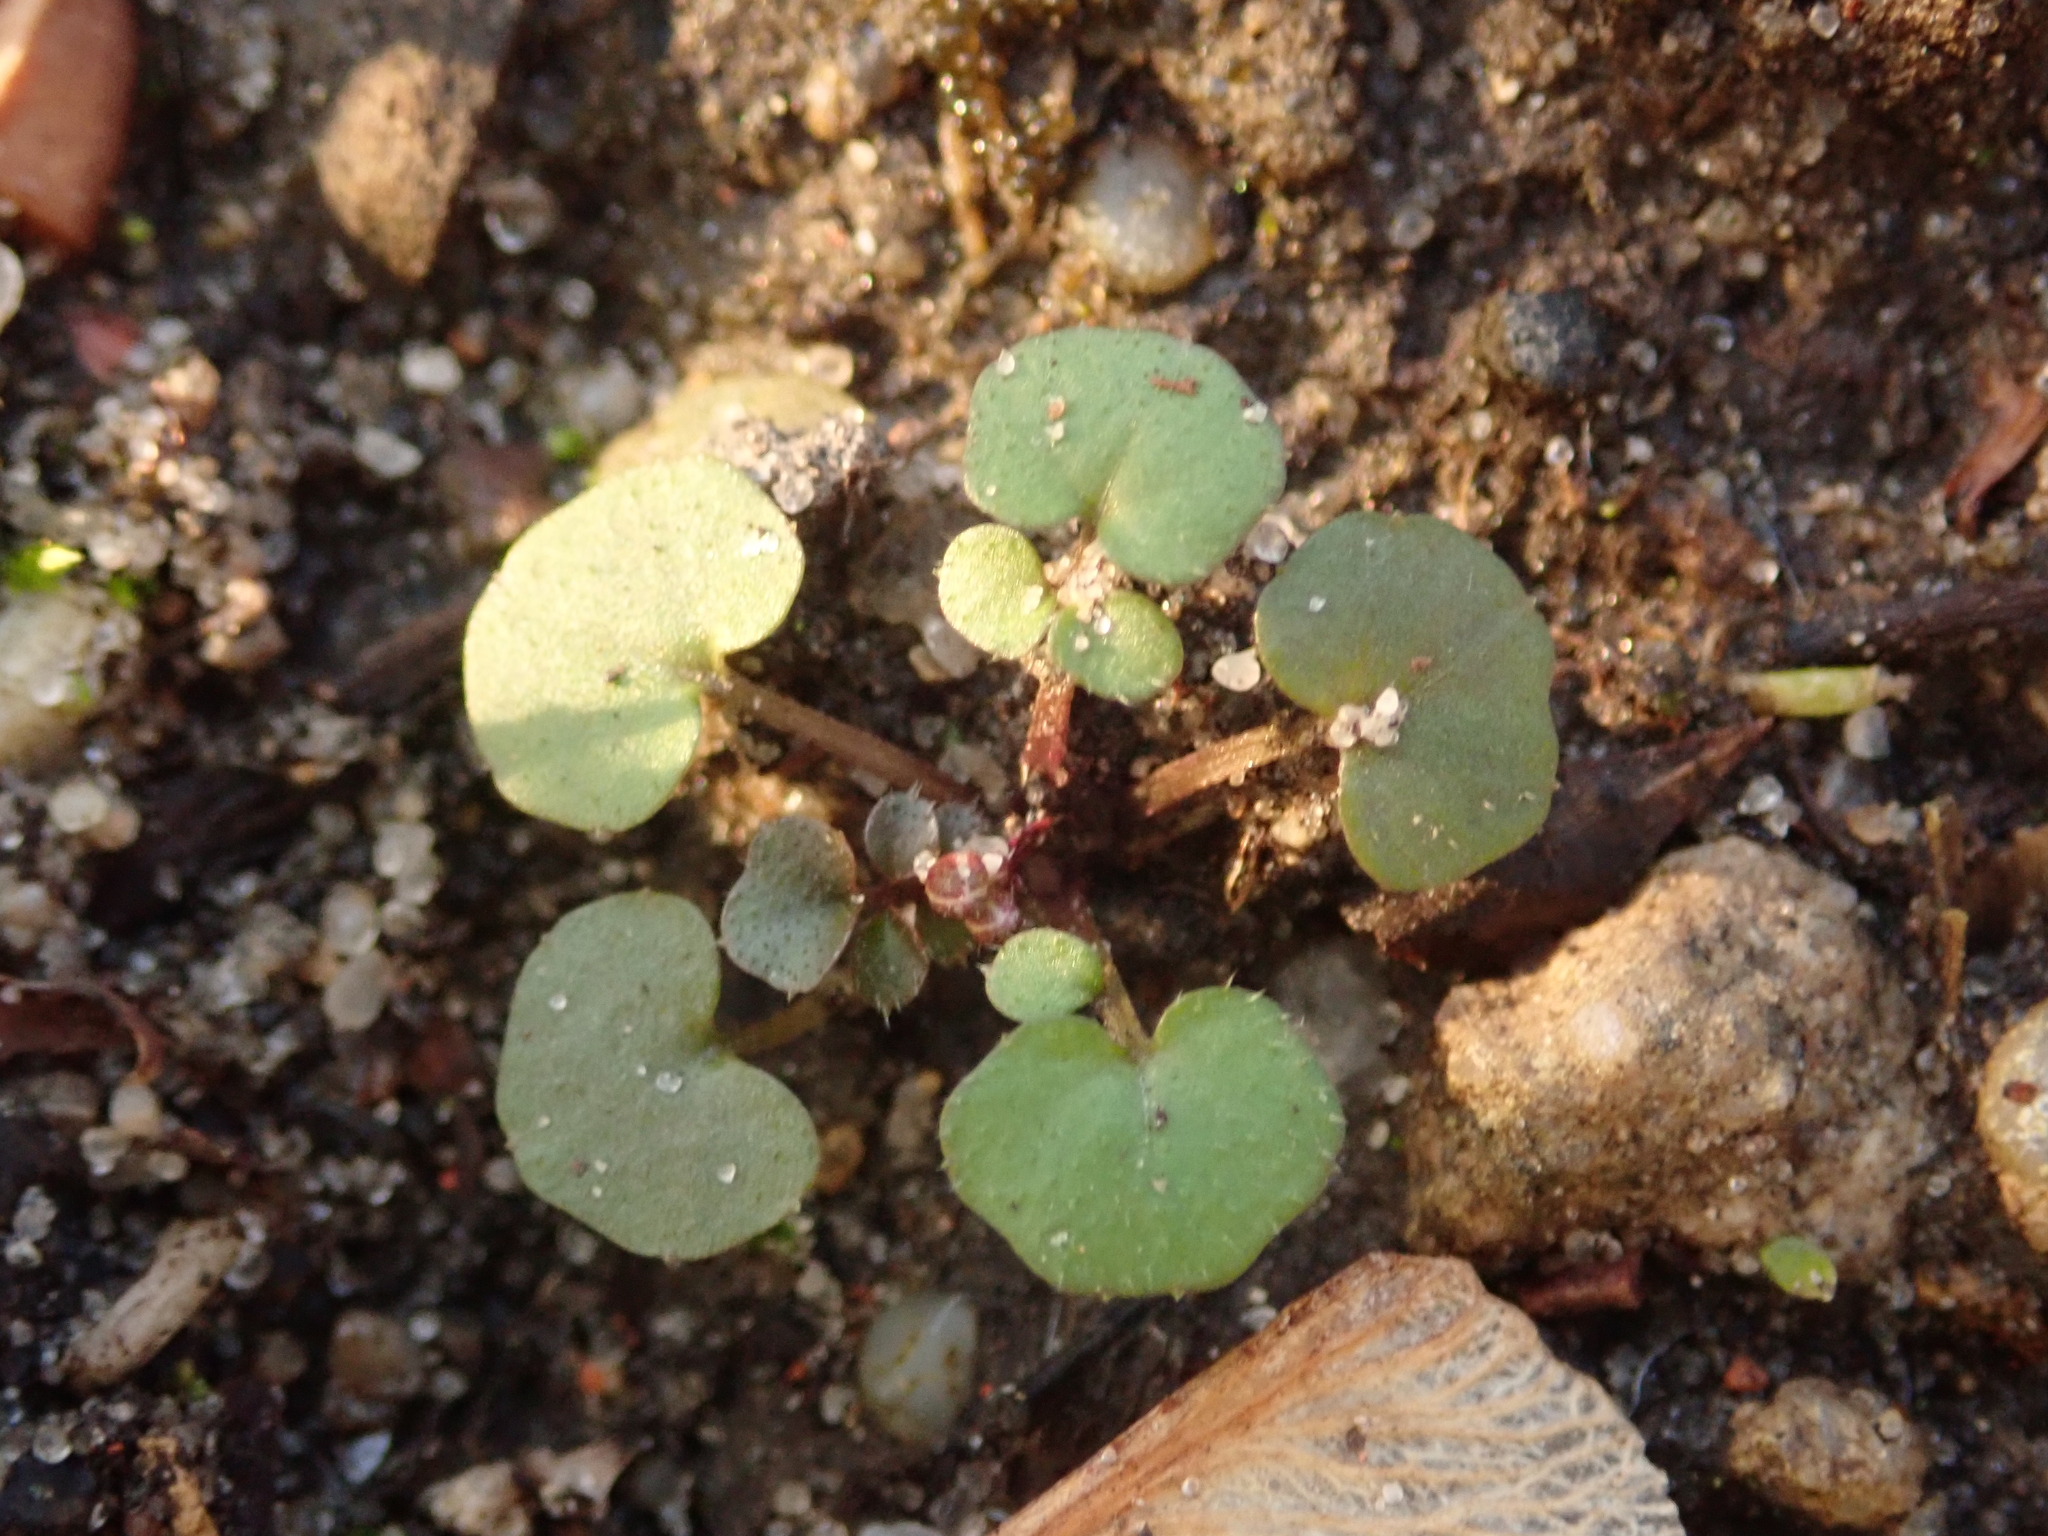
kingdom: Plantae
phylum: Tracheophyta
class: Magnoliopsida
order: Brassicales
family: Brassicaceae
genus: Cardamine
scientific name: Cardamine hirsuta
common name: Hairy bittercress
